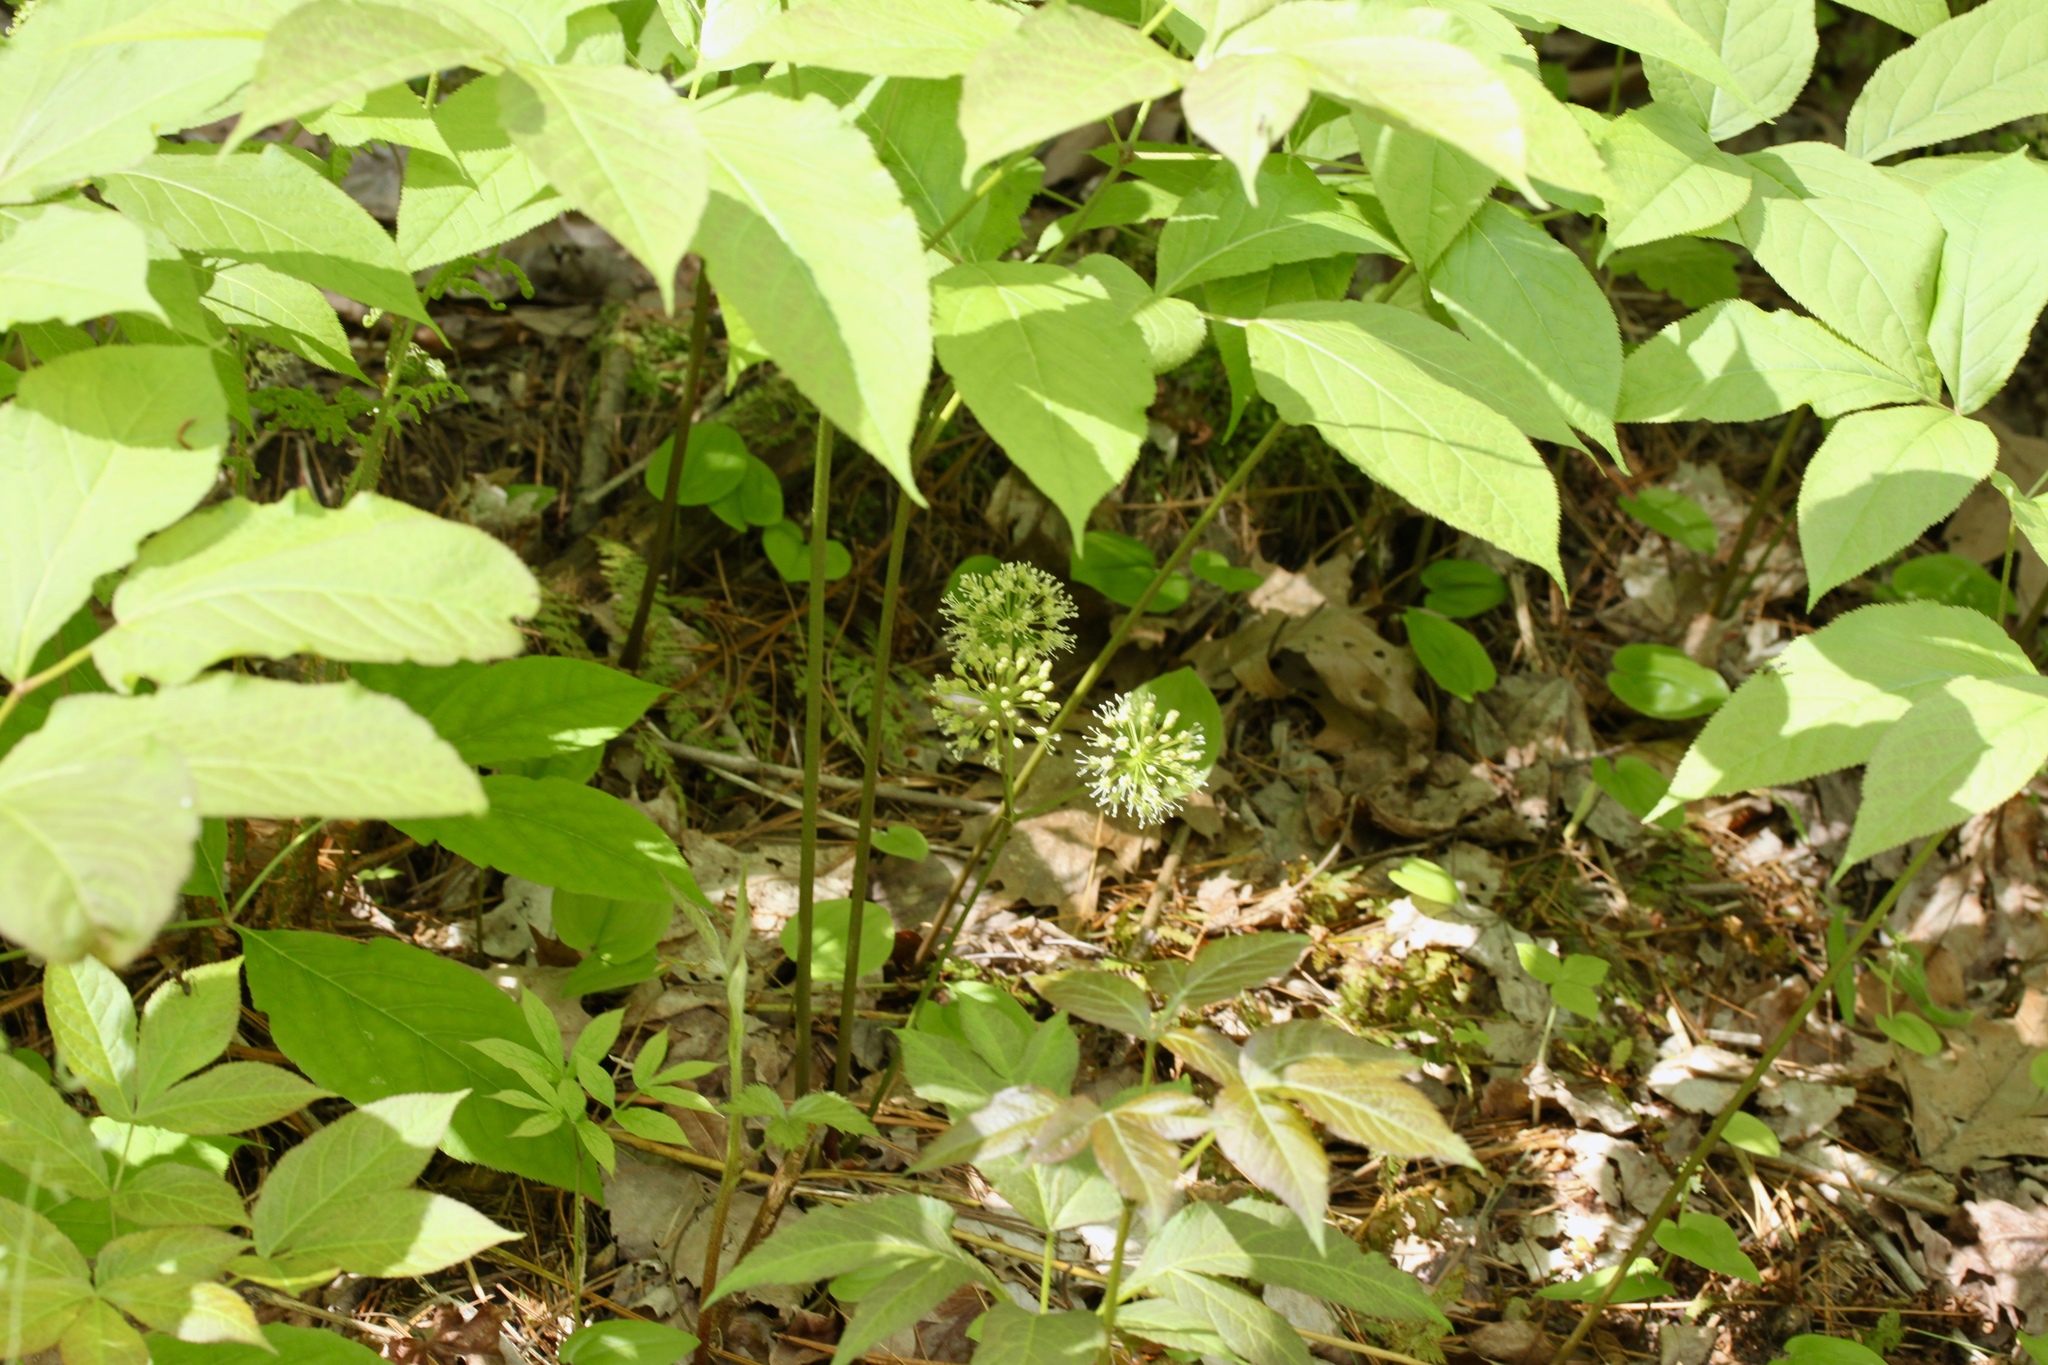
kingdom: Plantae
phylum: Tracheophyta
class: Magnoliopsida
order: Apiales
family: Araliaceae
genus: Aralia
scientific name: Aralia nudicaulis
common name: Wild sarsaparilla
